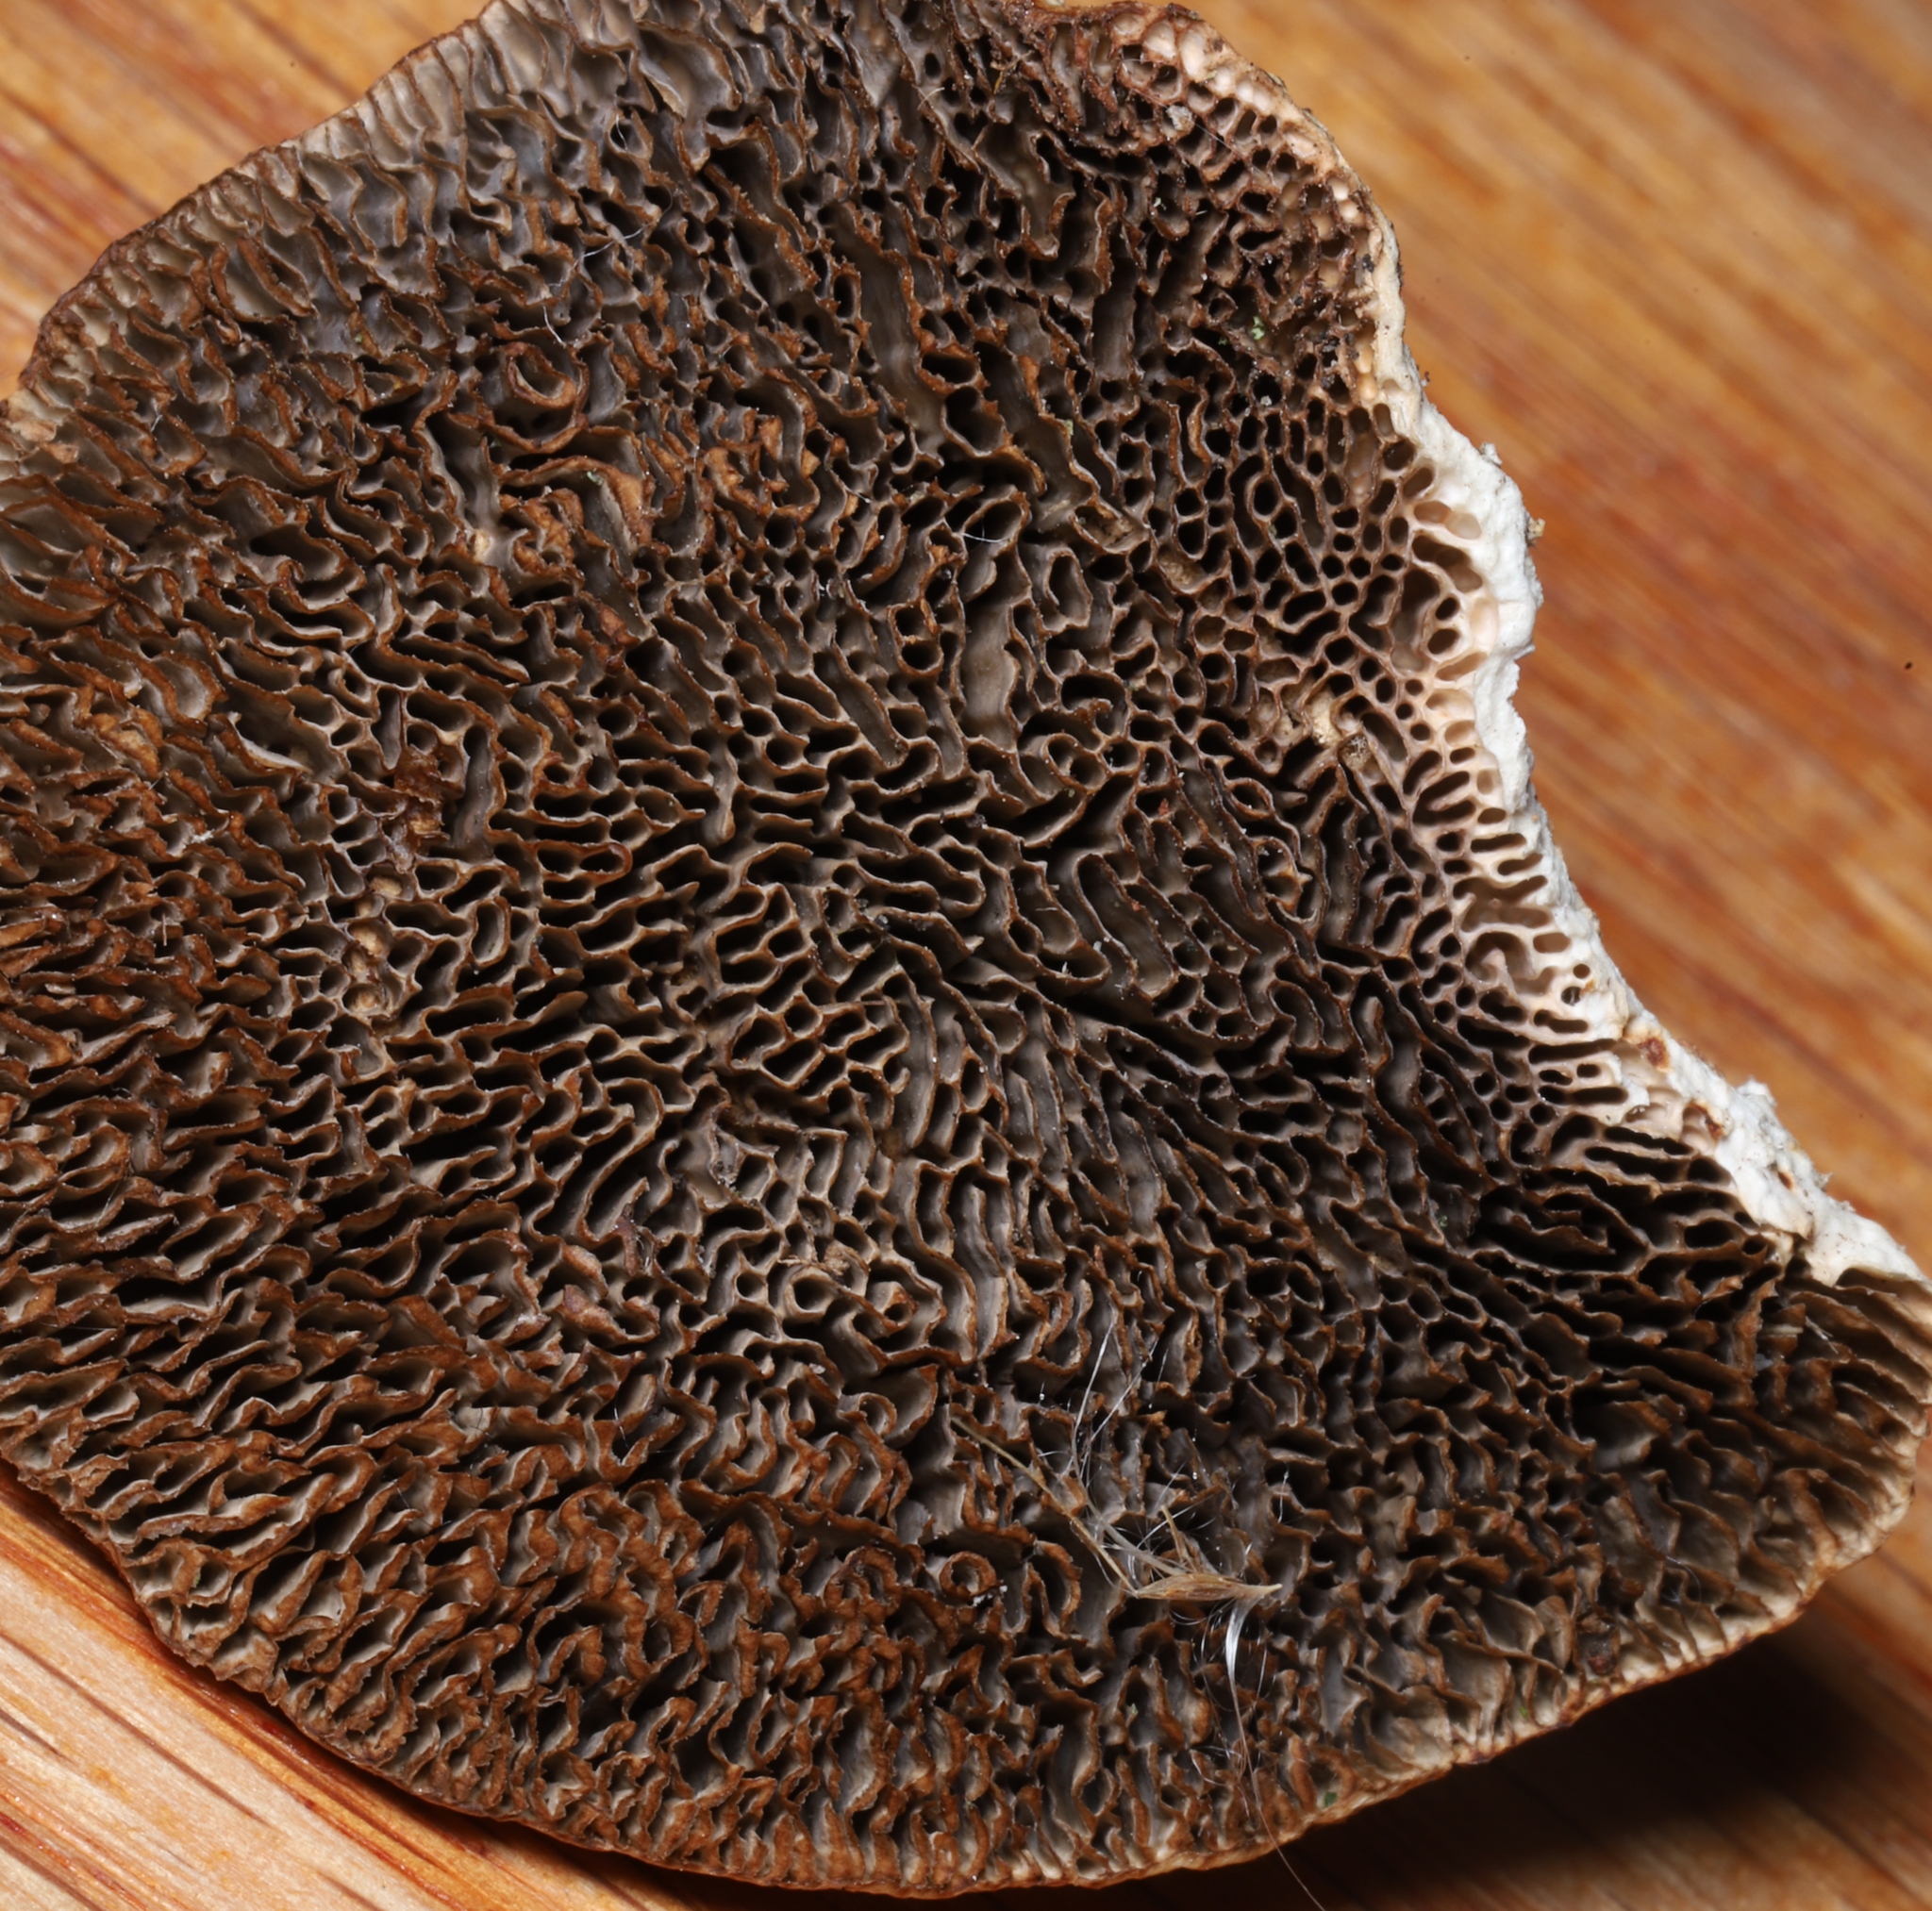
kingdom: Fungi
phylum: Basidiomycota
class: Agaricomycetes
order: Polyporales
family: Polyporaceae
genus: Daedaleopsis
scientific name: Daedaleopsis confragosa
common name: Blushing bracket
